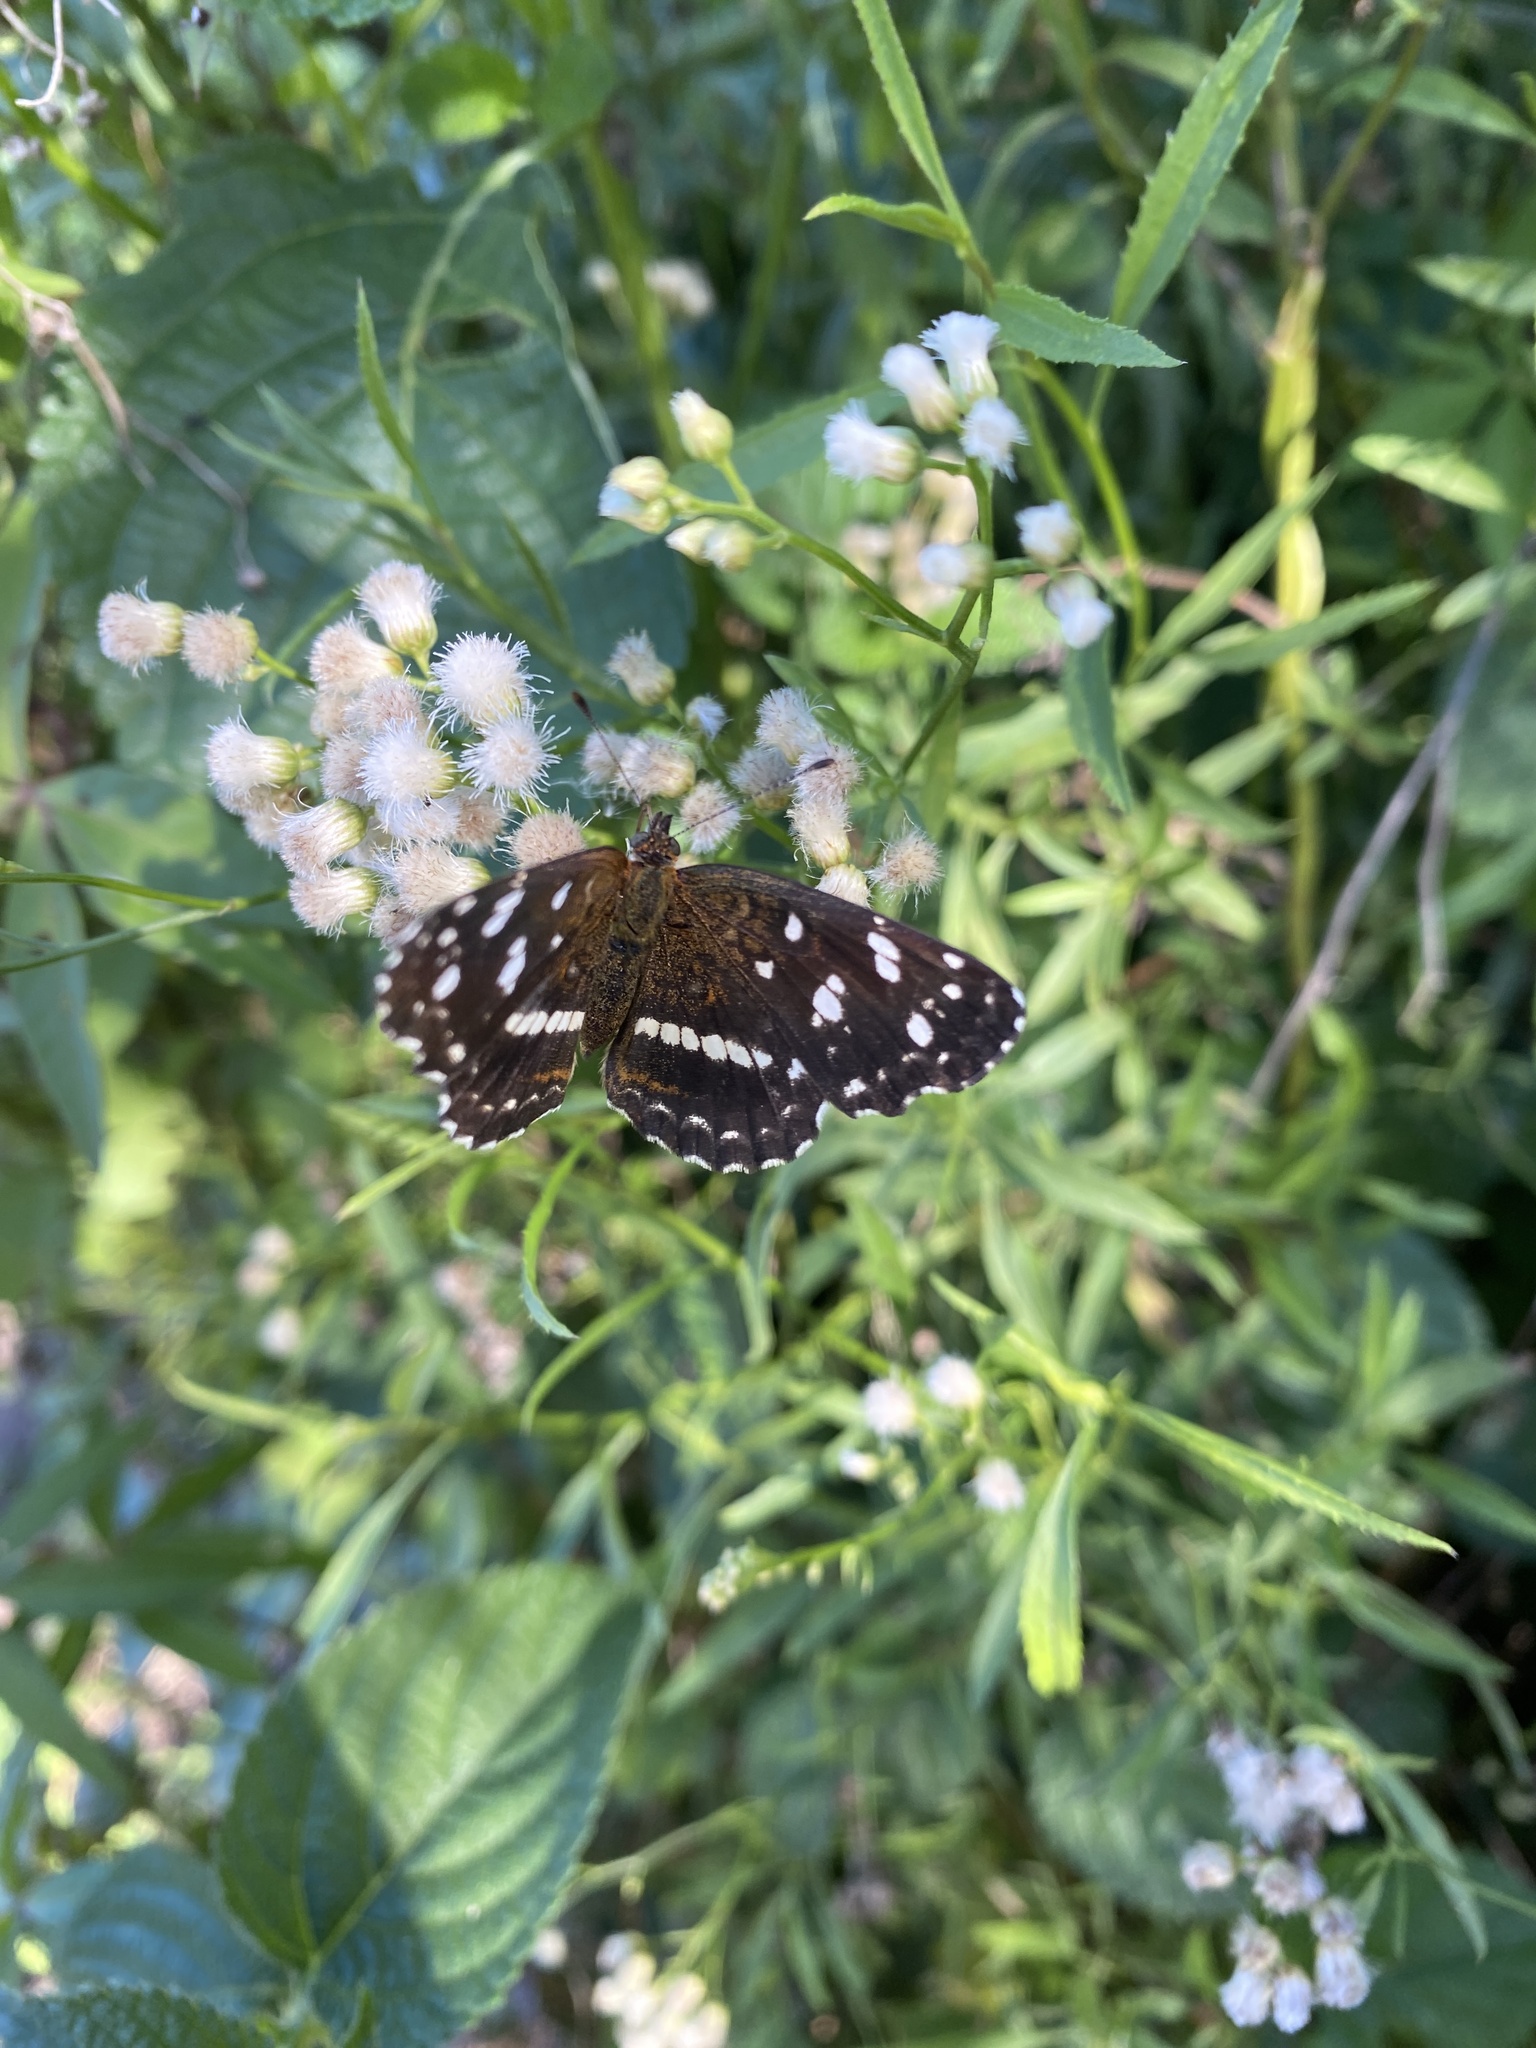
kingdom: Animalia
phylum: Arthropoda
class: Insecta
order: Lepidoptera
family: Nymphalidae
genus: Ortilia
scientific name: Ortilia ithra
